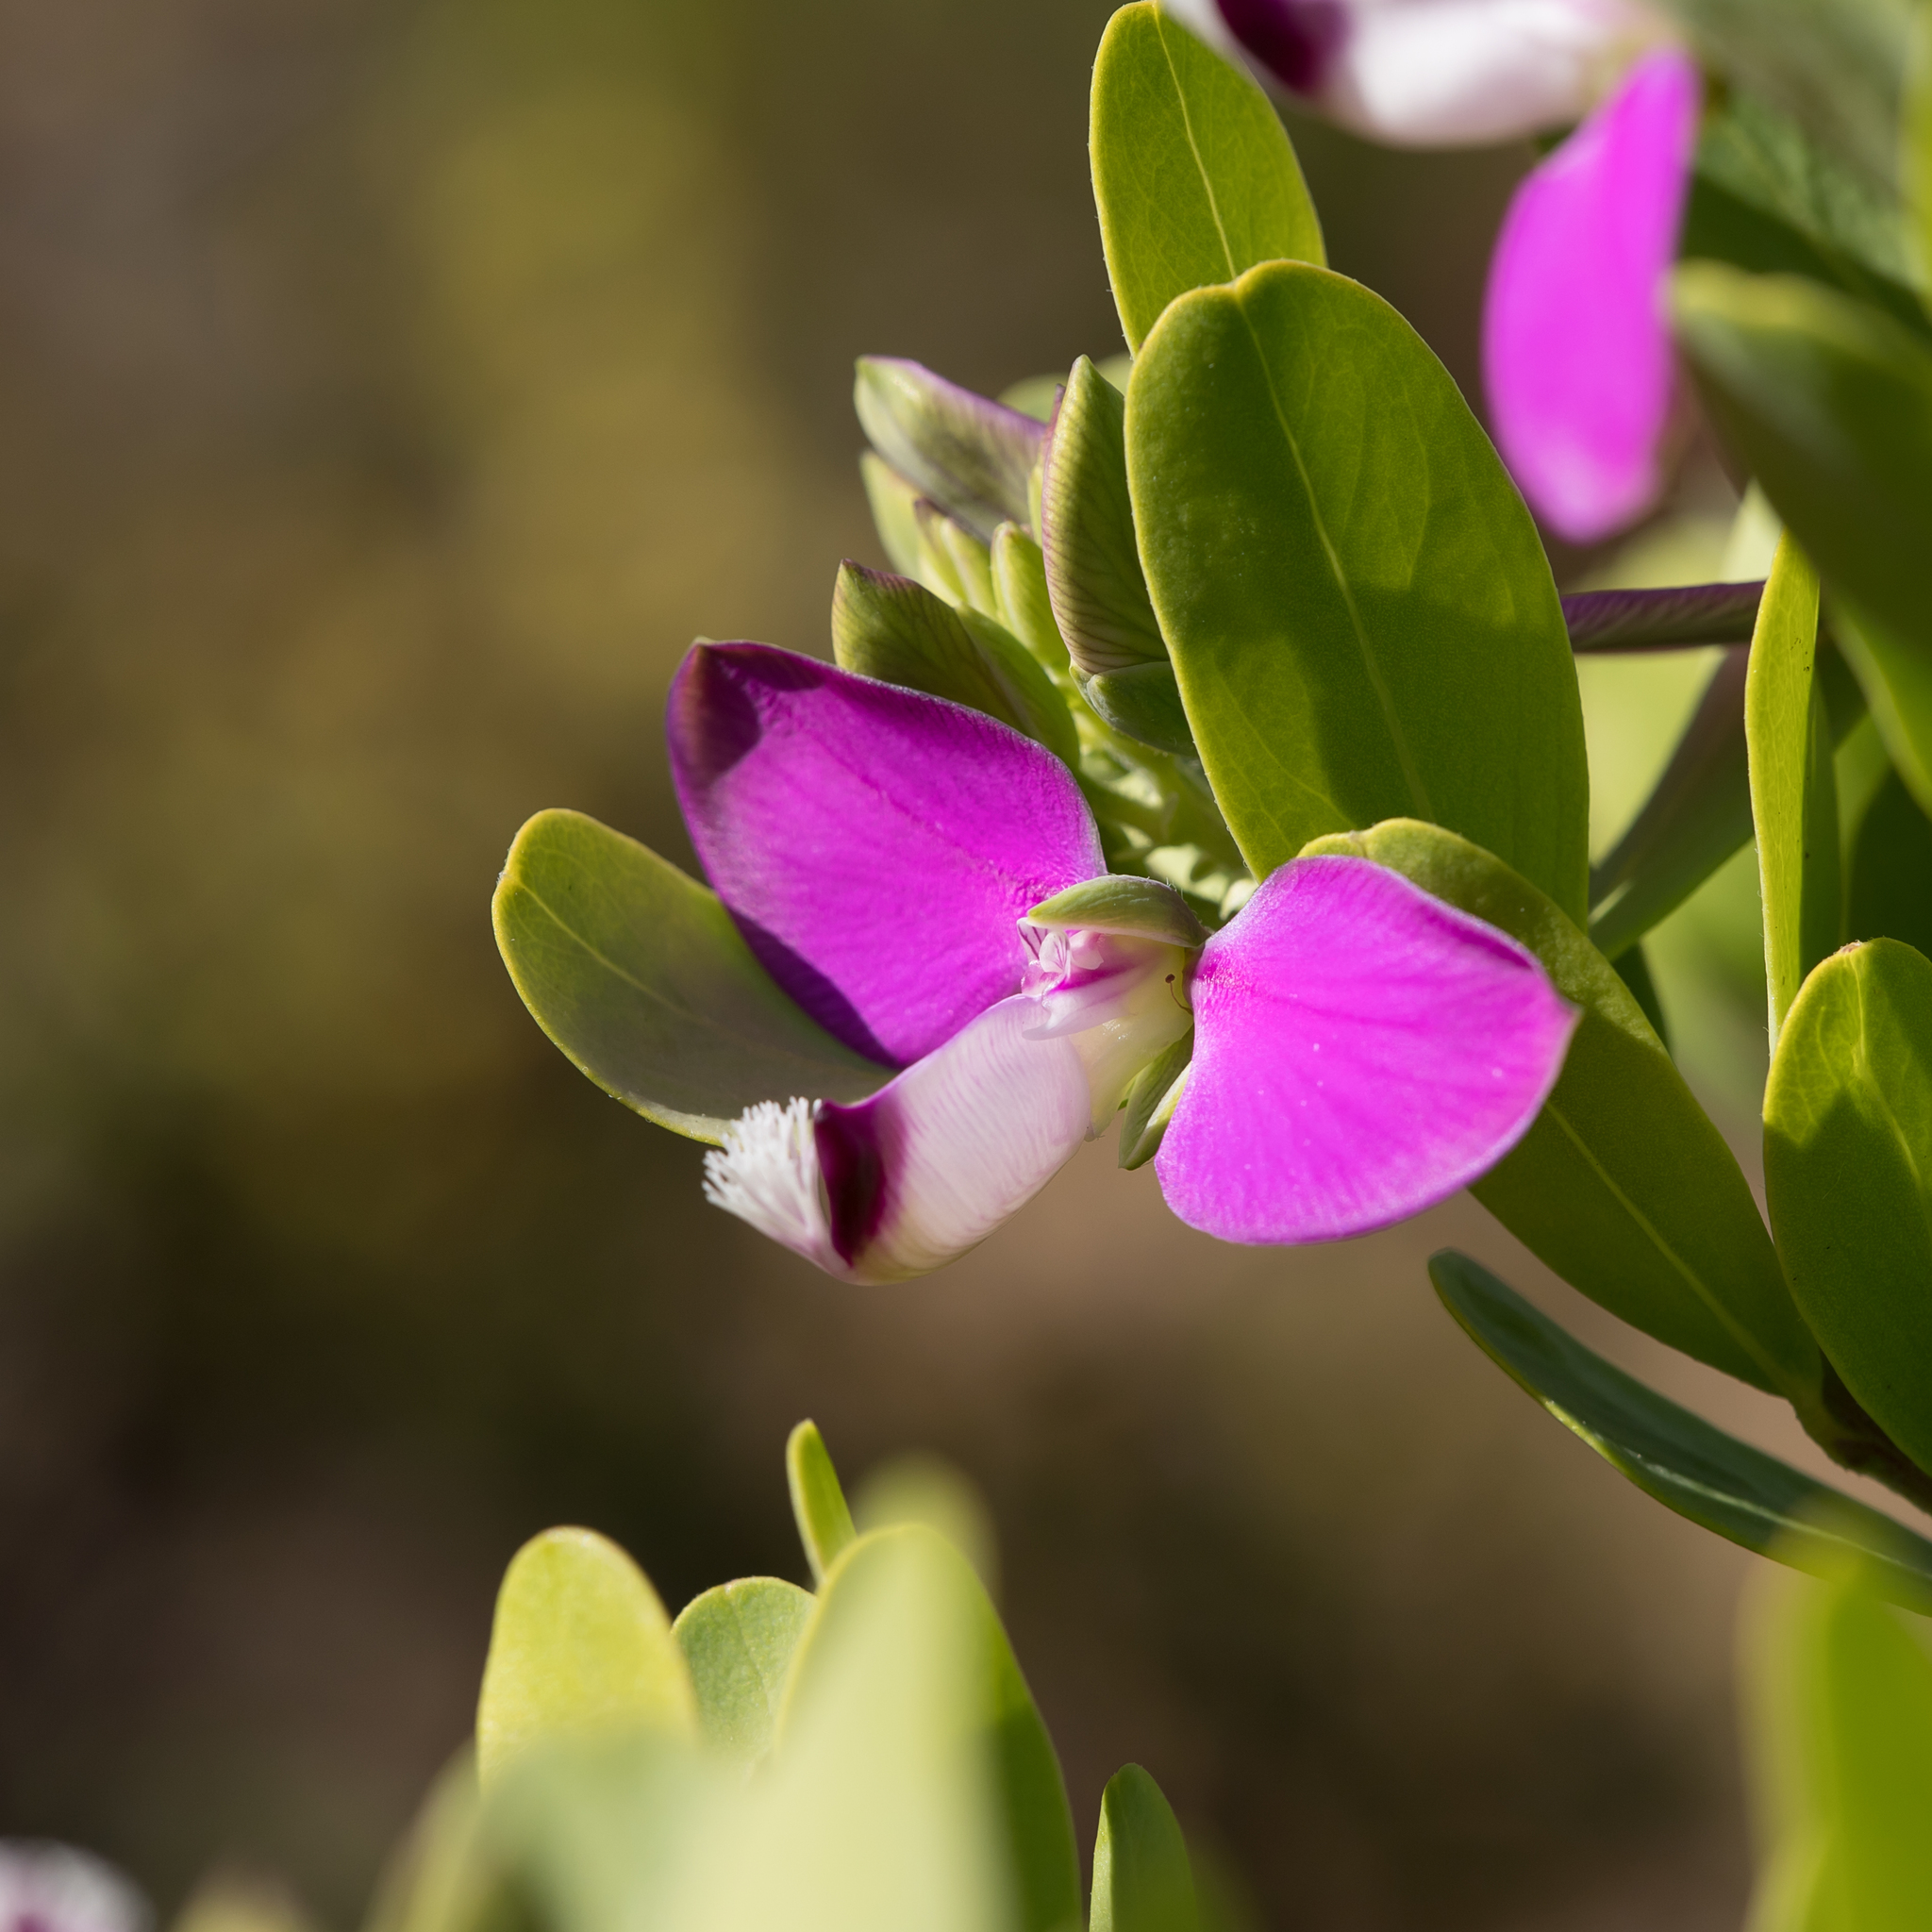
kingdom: Plantae
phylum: Tracheophyta
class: Magnoliopsida
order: Fabales
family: Polygalaceae
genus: Polygala
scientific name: Polygala myrtifolia
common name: Myrtle-leaf milkwort
